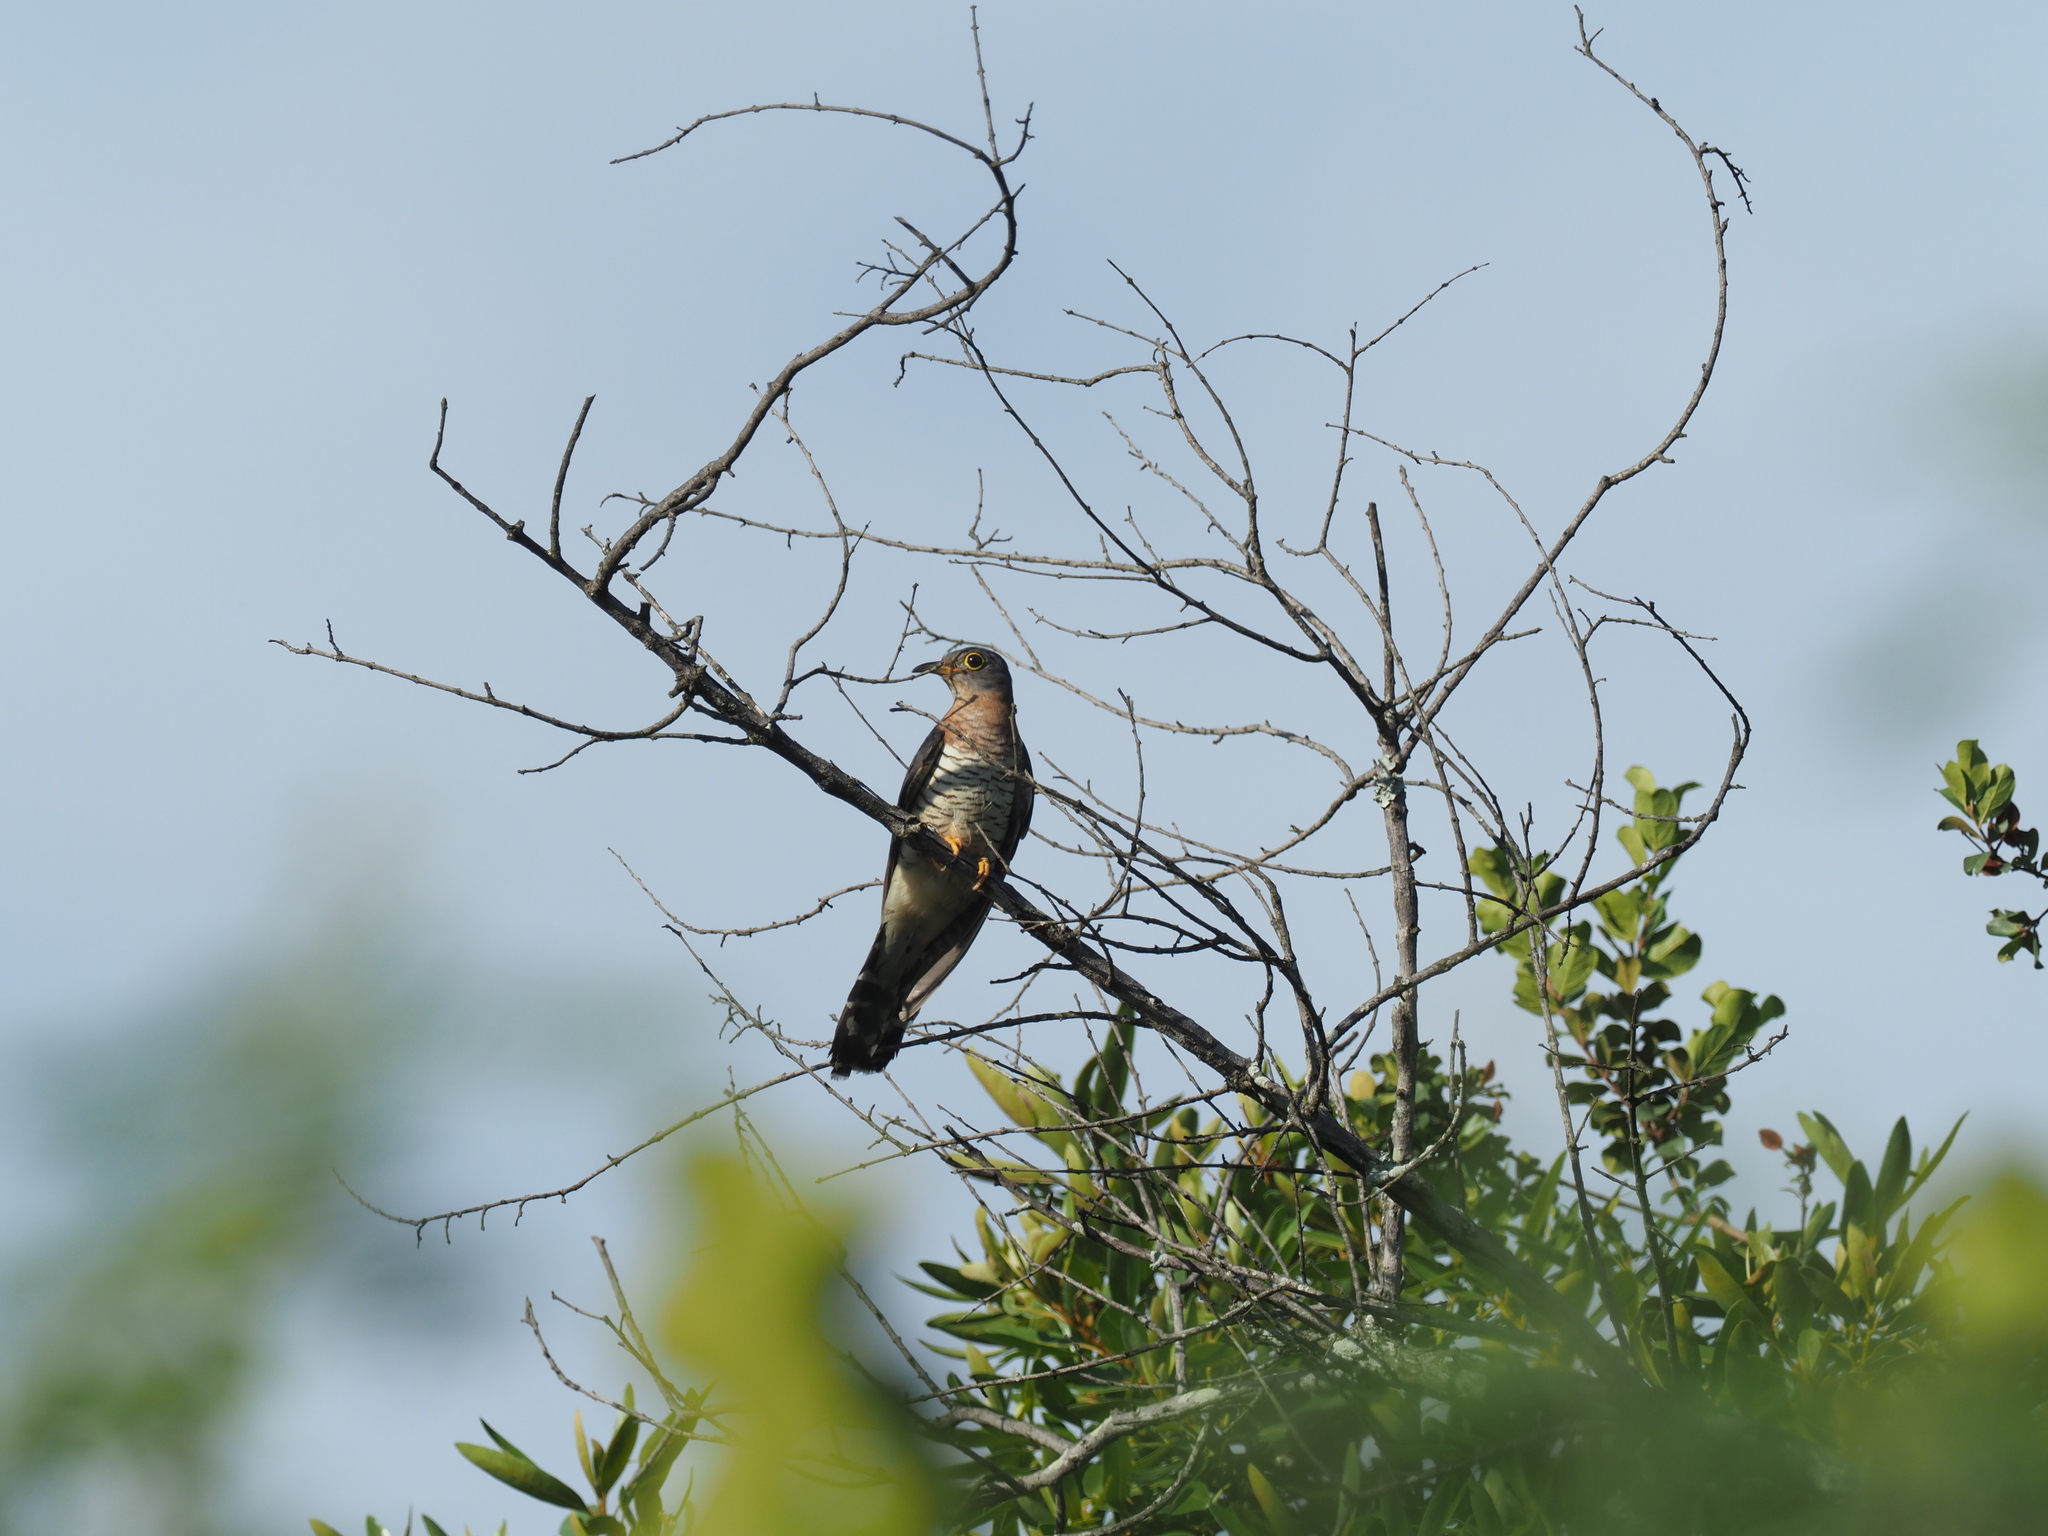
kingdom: Animalia
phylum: Chordata
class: Aves
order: Cuculiformes
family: Cuculidae
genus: Cuculus
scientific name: Cuculus solitarius
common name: Red-chested cuckoo
